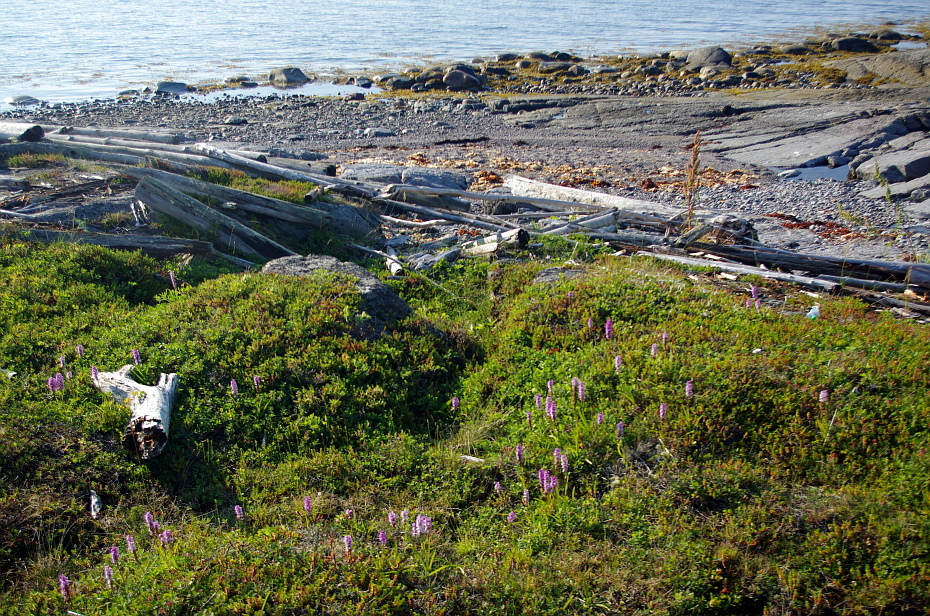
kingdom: Plantae
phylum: Tracheophyta
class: Liliopsida
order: Asparagales
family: Orchidaceae
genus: Gymnadenia
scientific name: Gymnadenia conopsea
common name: Fragrant orchid
